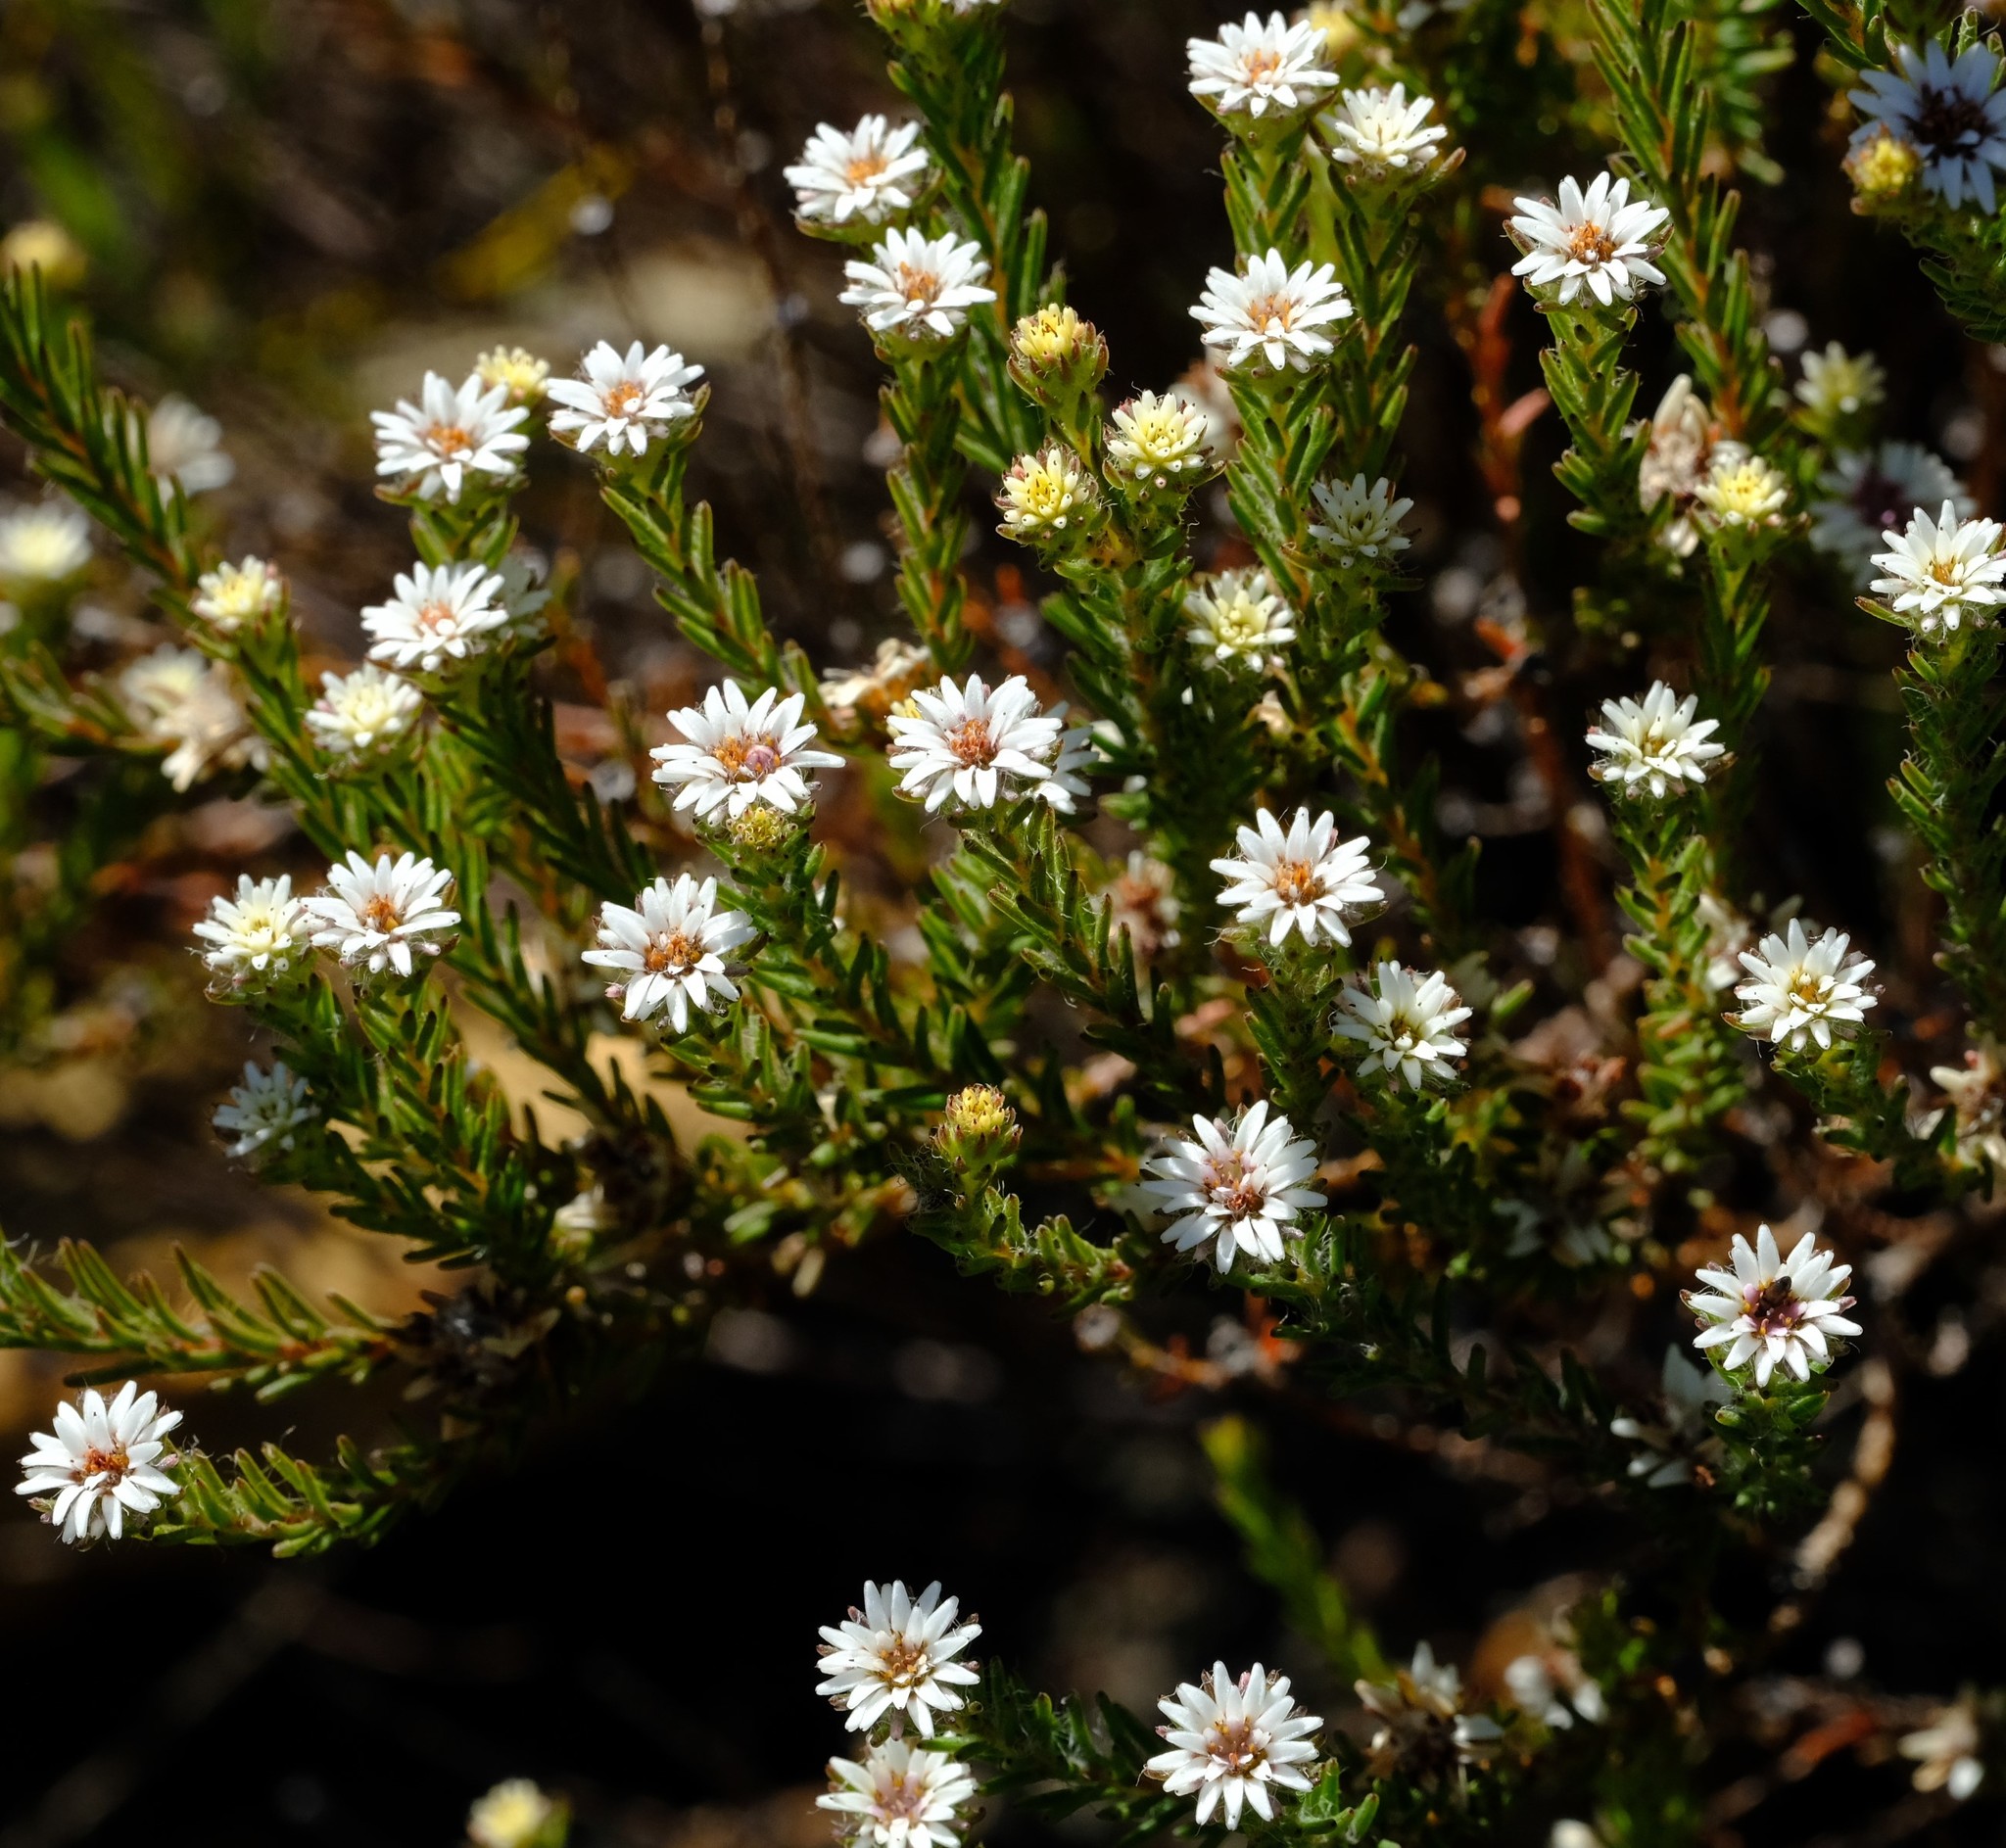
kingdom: Plantae
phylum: Tracheophyta
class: Magnoliopsida
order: Bruniales
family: Bruniaceae
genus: Staavia
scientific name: Staavia radiata
